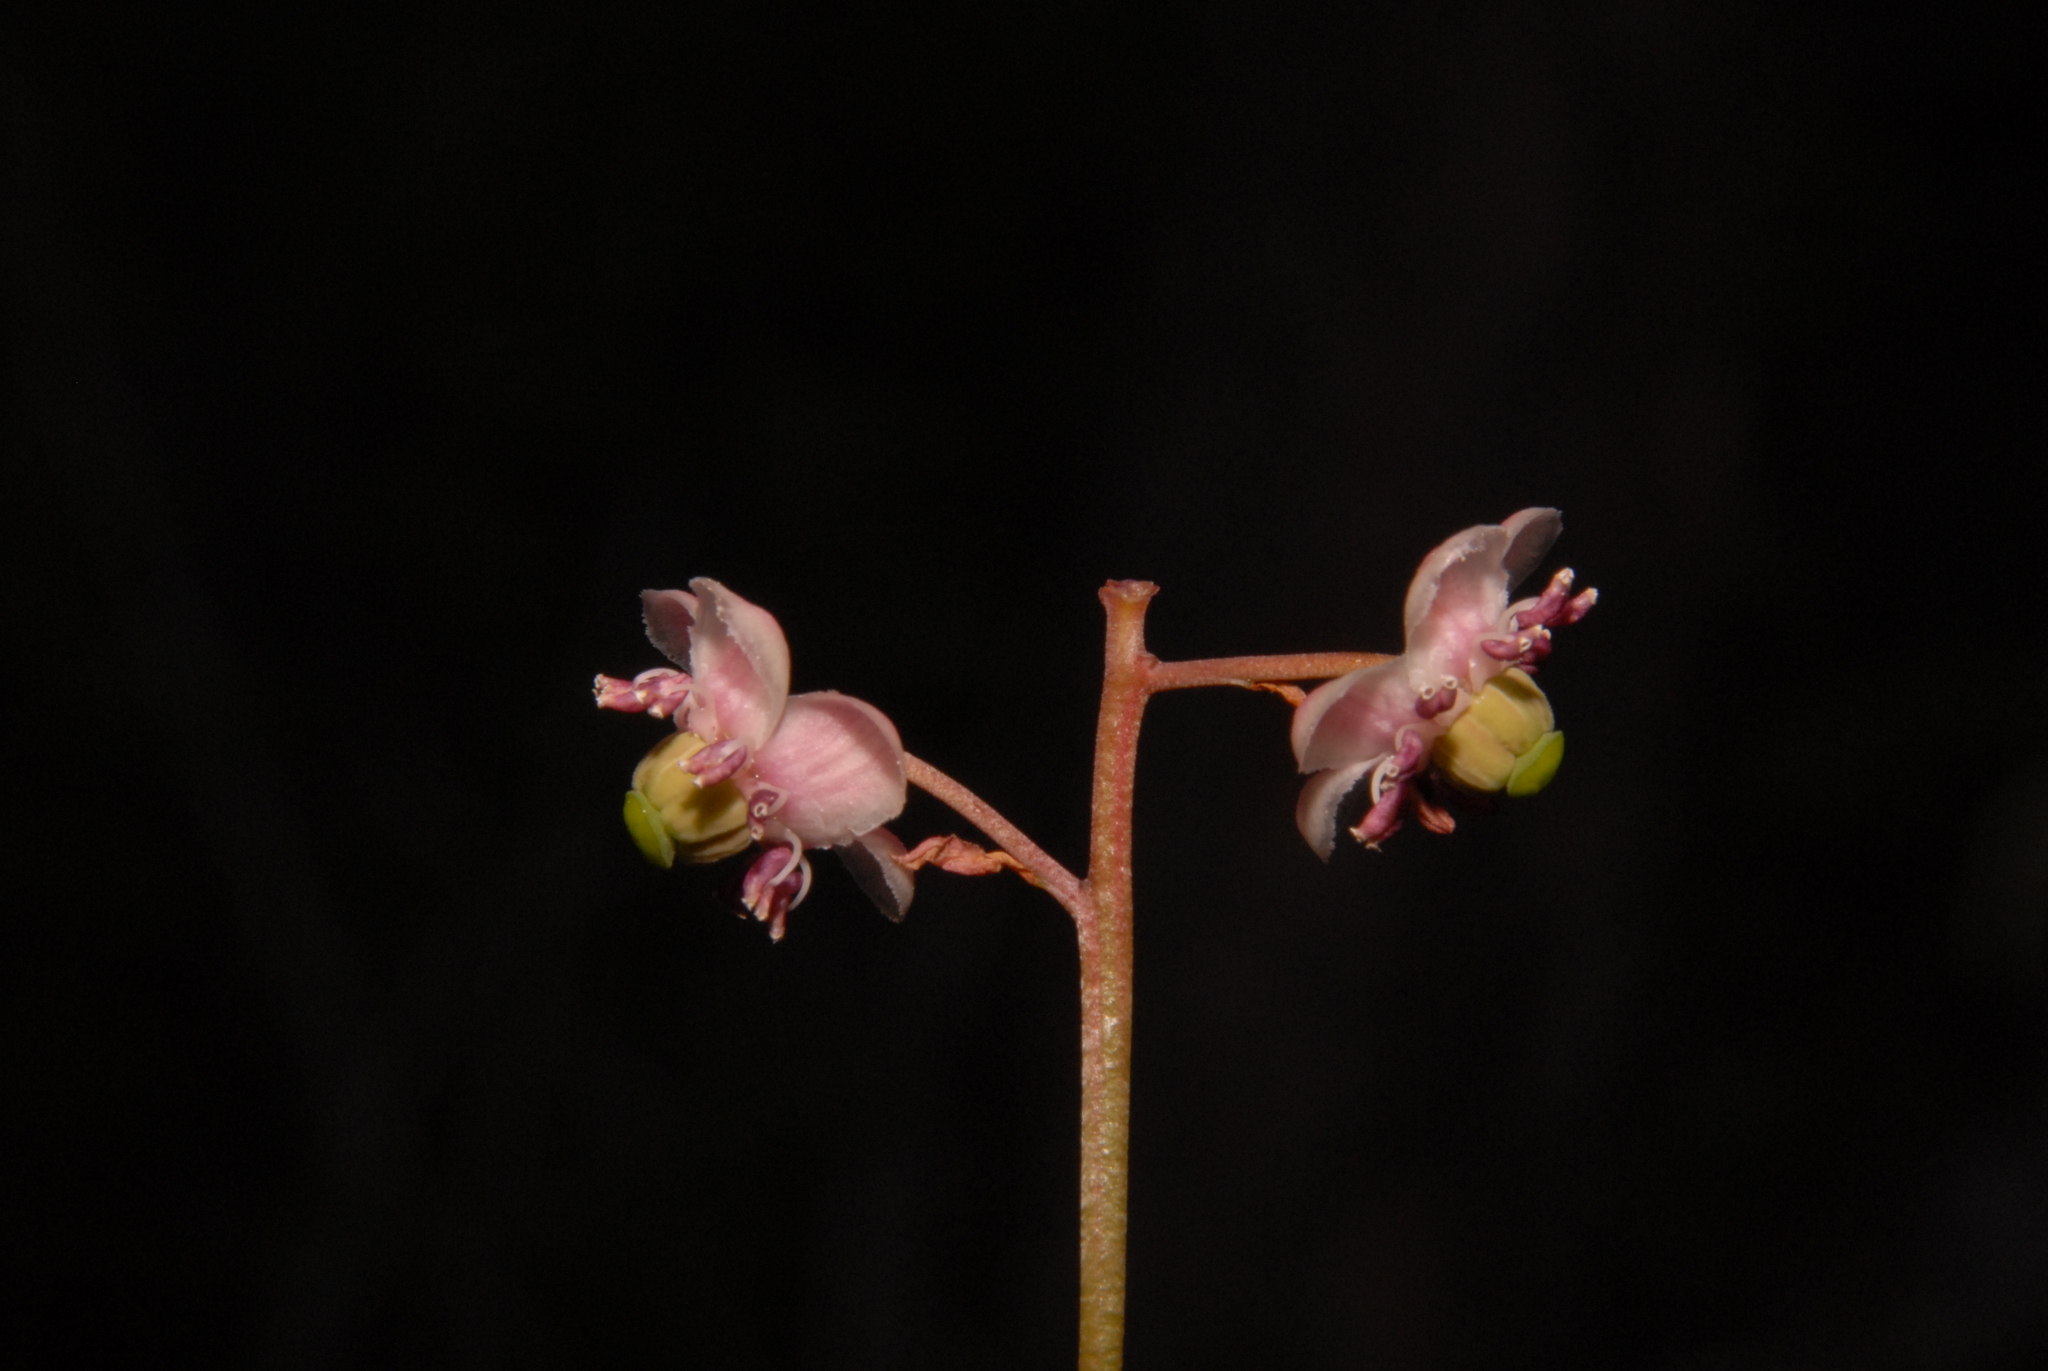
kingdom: Plantae
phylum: Tracheophyta
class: Magnoliopsida
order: Ericales
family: Ericaceae
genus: Chimaphila
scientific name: Chimaphila umbellata
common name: Pipsissewa
